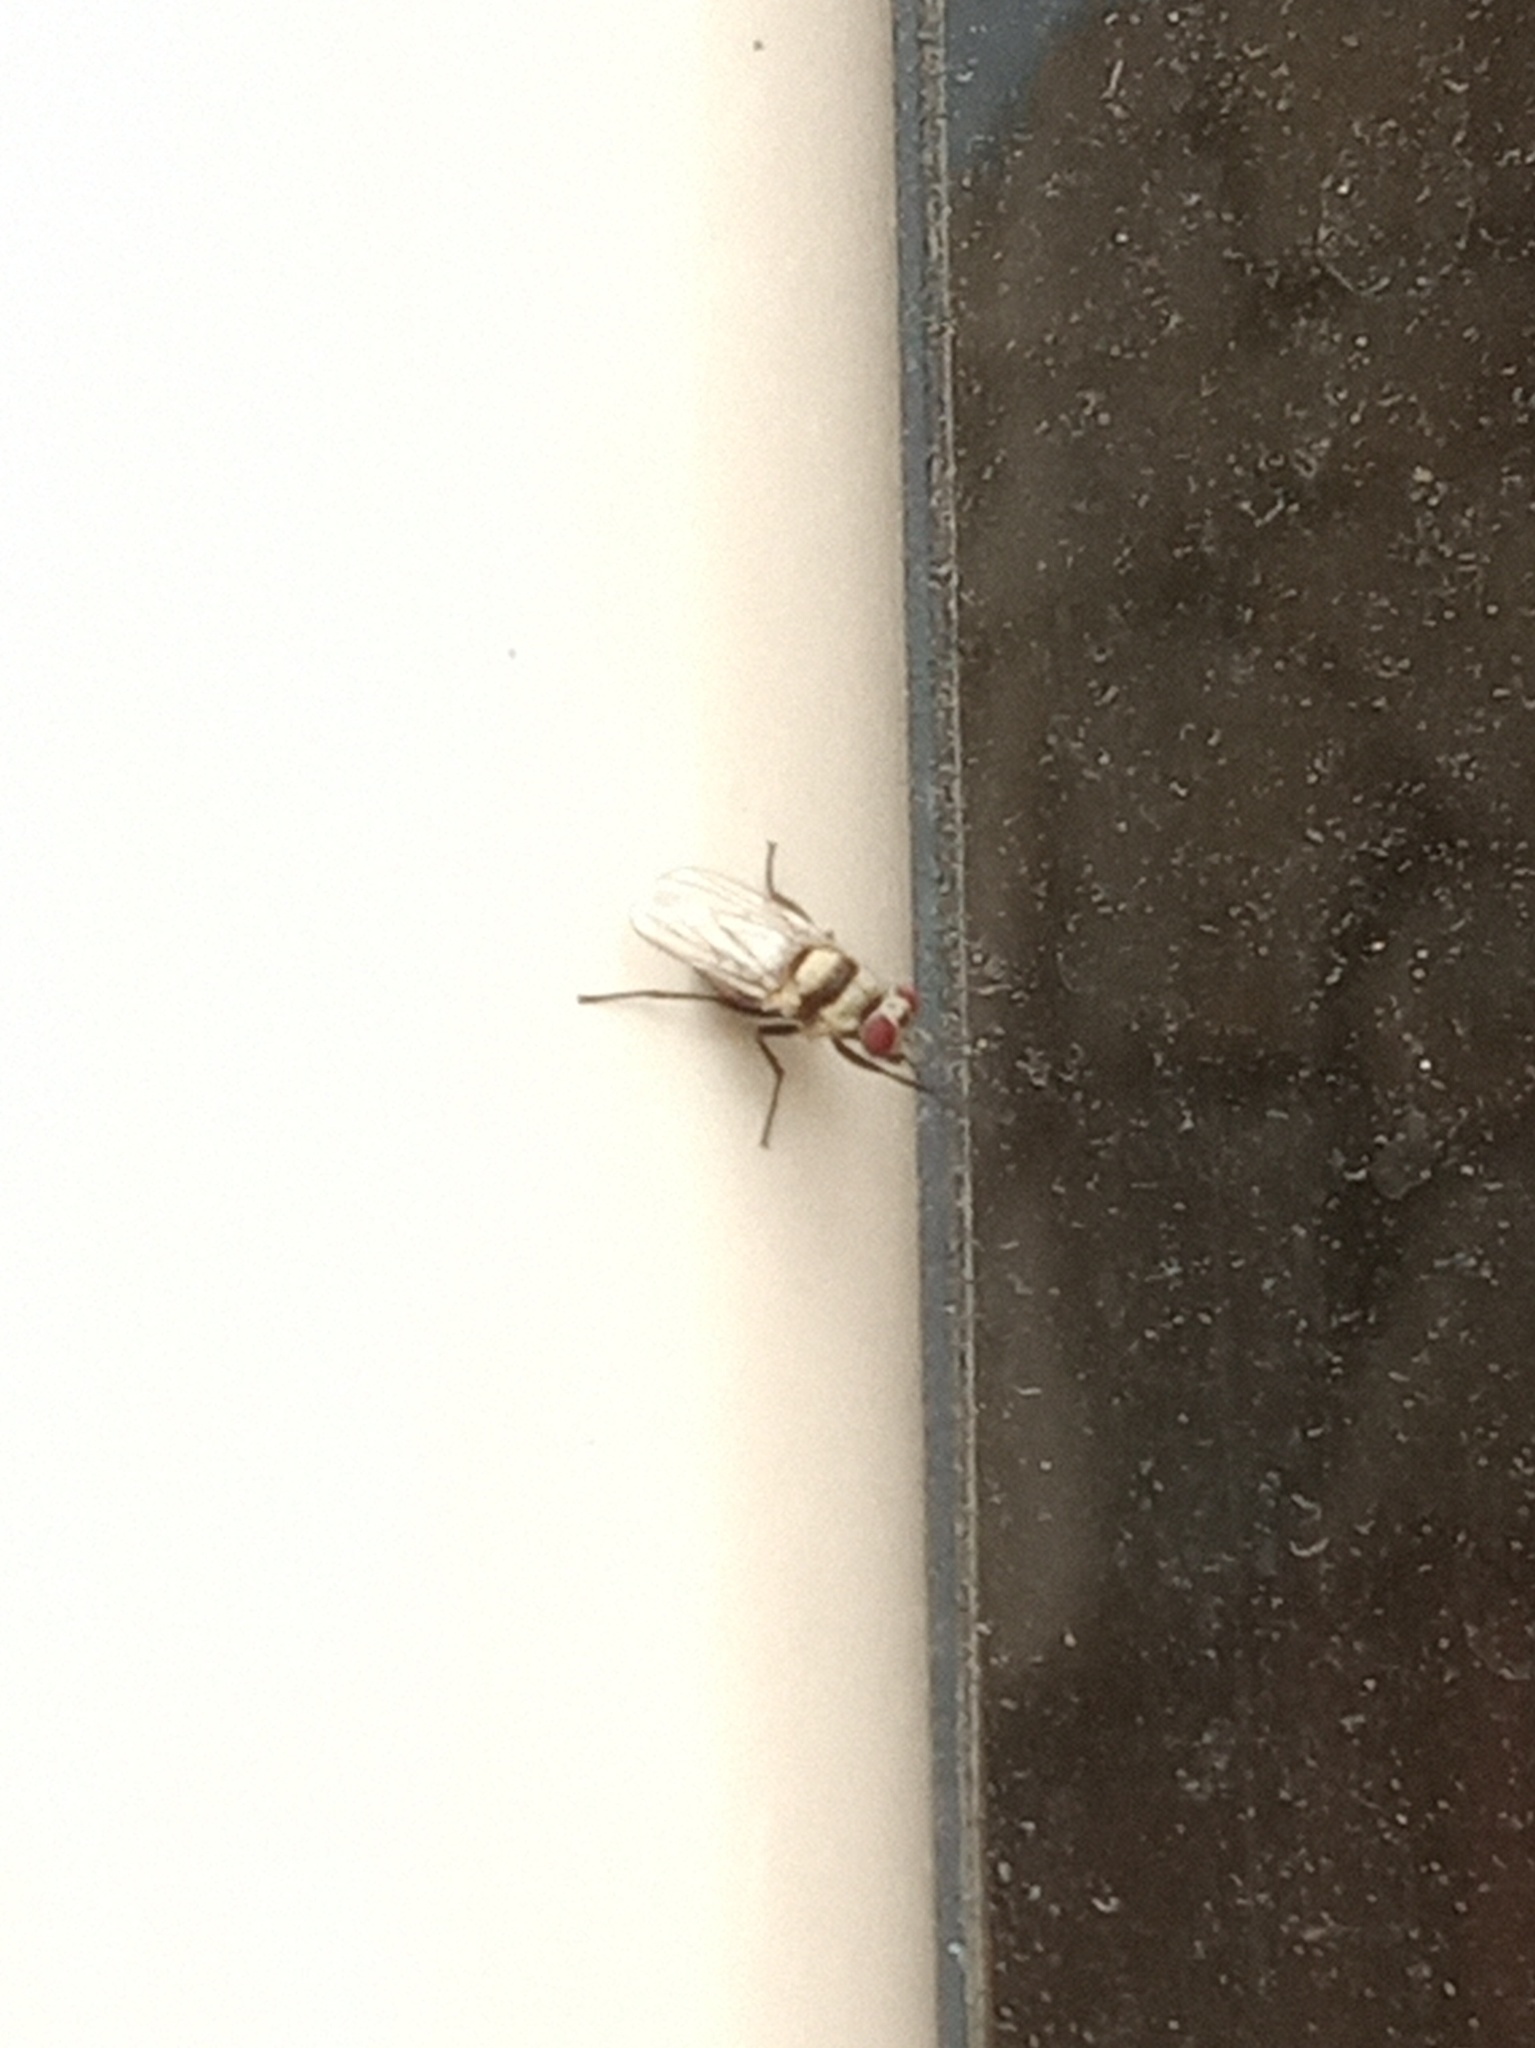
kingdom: Animalia
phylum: Arthropoda
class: Insecta
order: Diptera
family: Anthomyiidae
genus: Anthomyia
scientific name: Anthomyia illocata
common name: Fly
